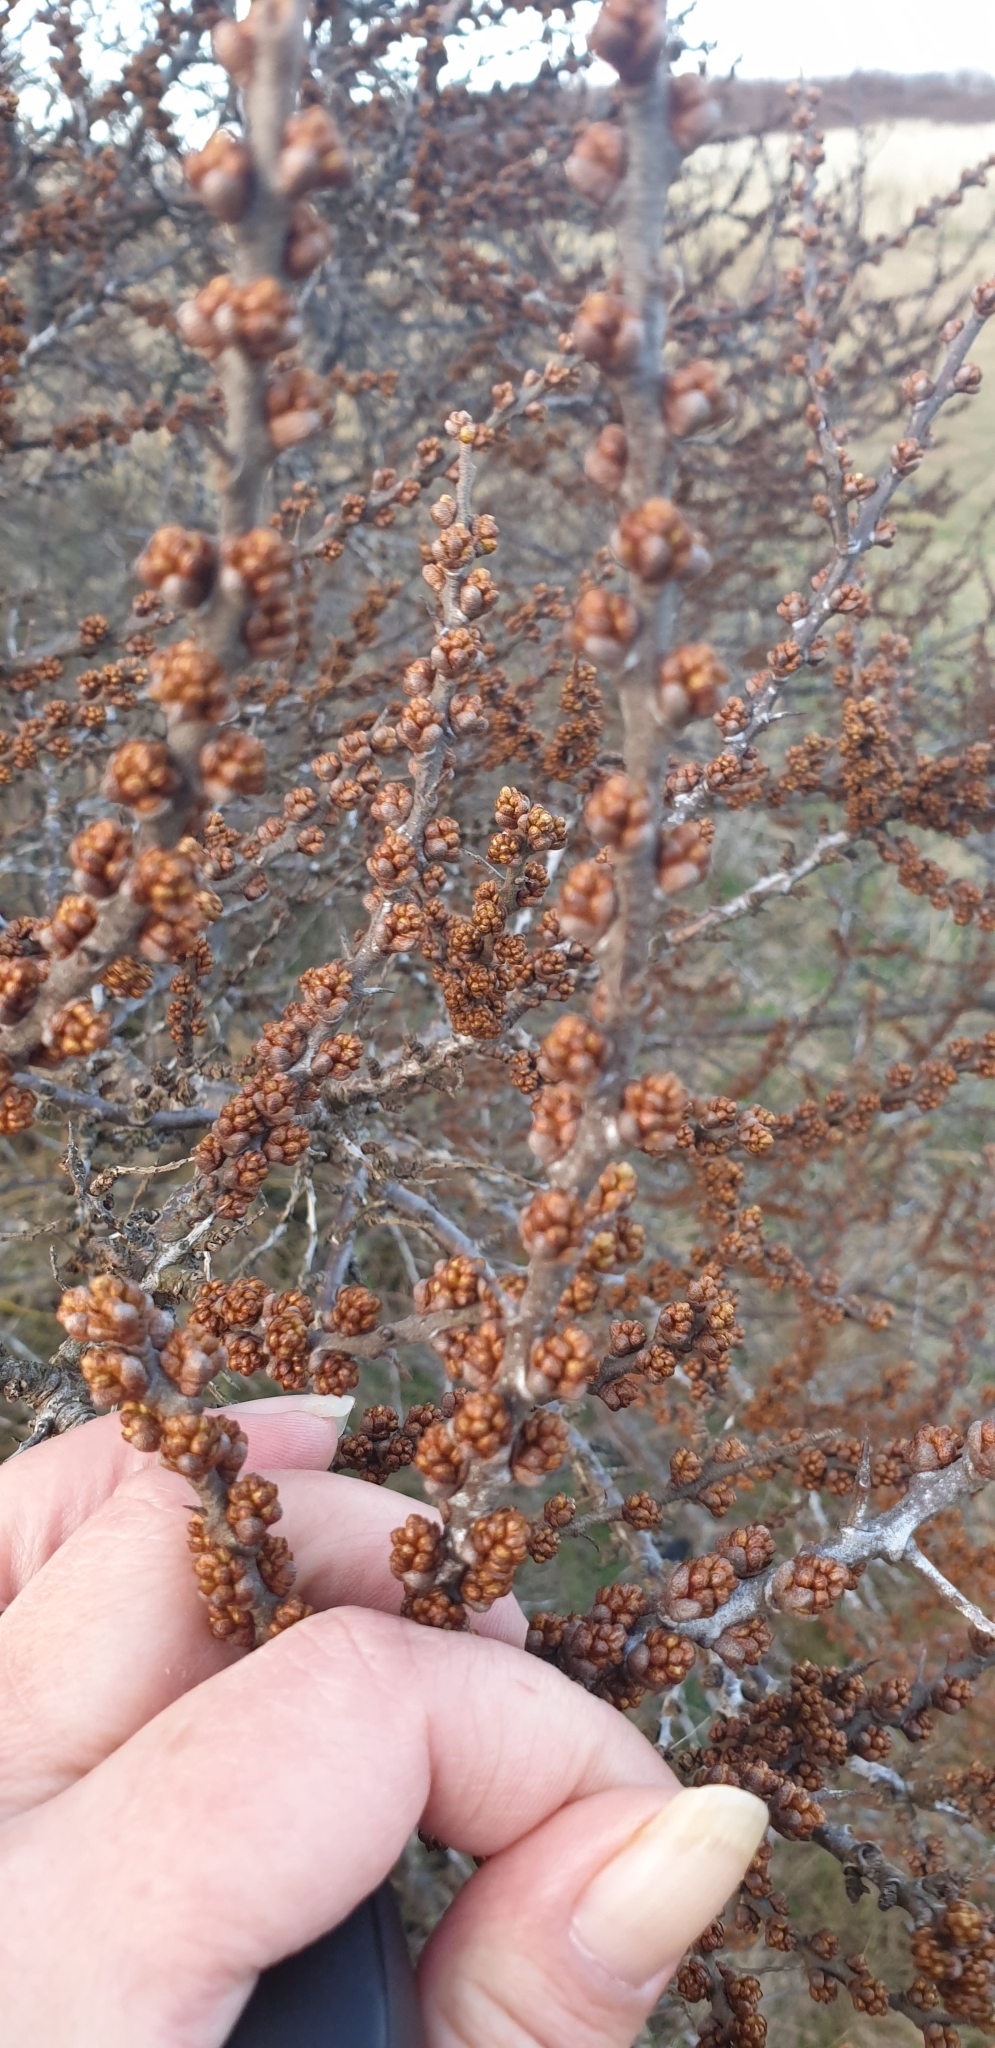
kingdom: Plantae
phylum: Tracheophyta
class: Magnoliopsida
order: Rosales
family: Elaeagnaceae
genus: Hippophae
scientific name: Hippophae rhamnoides
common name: Sea-buckthorn
